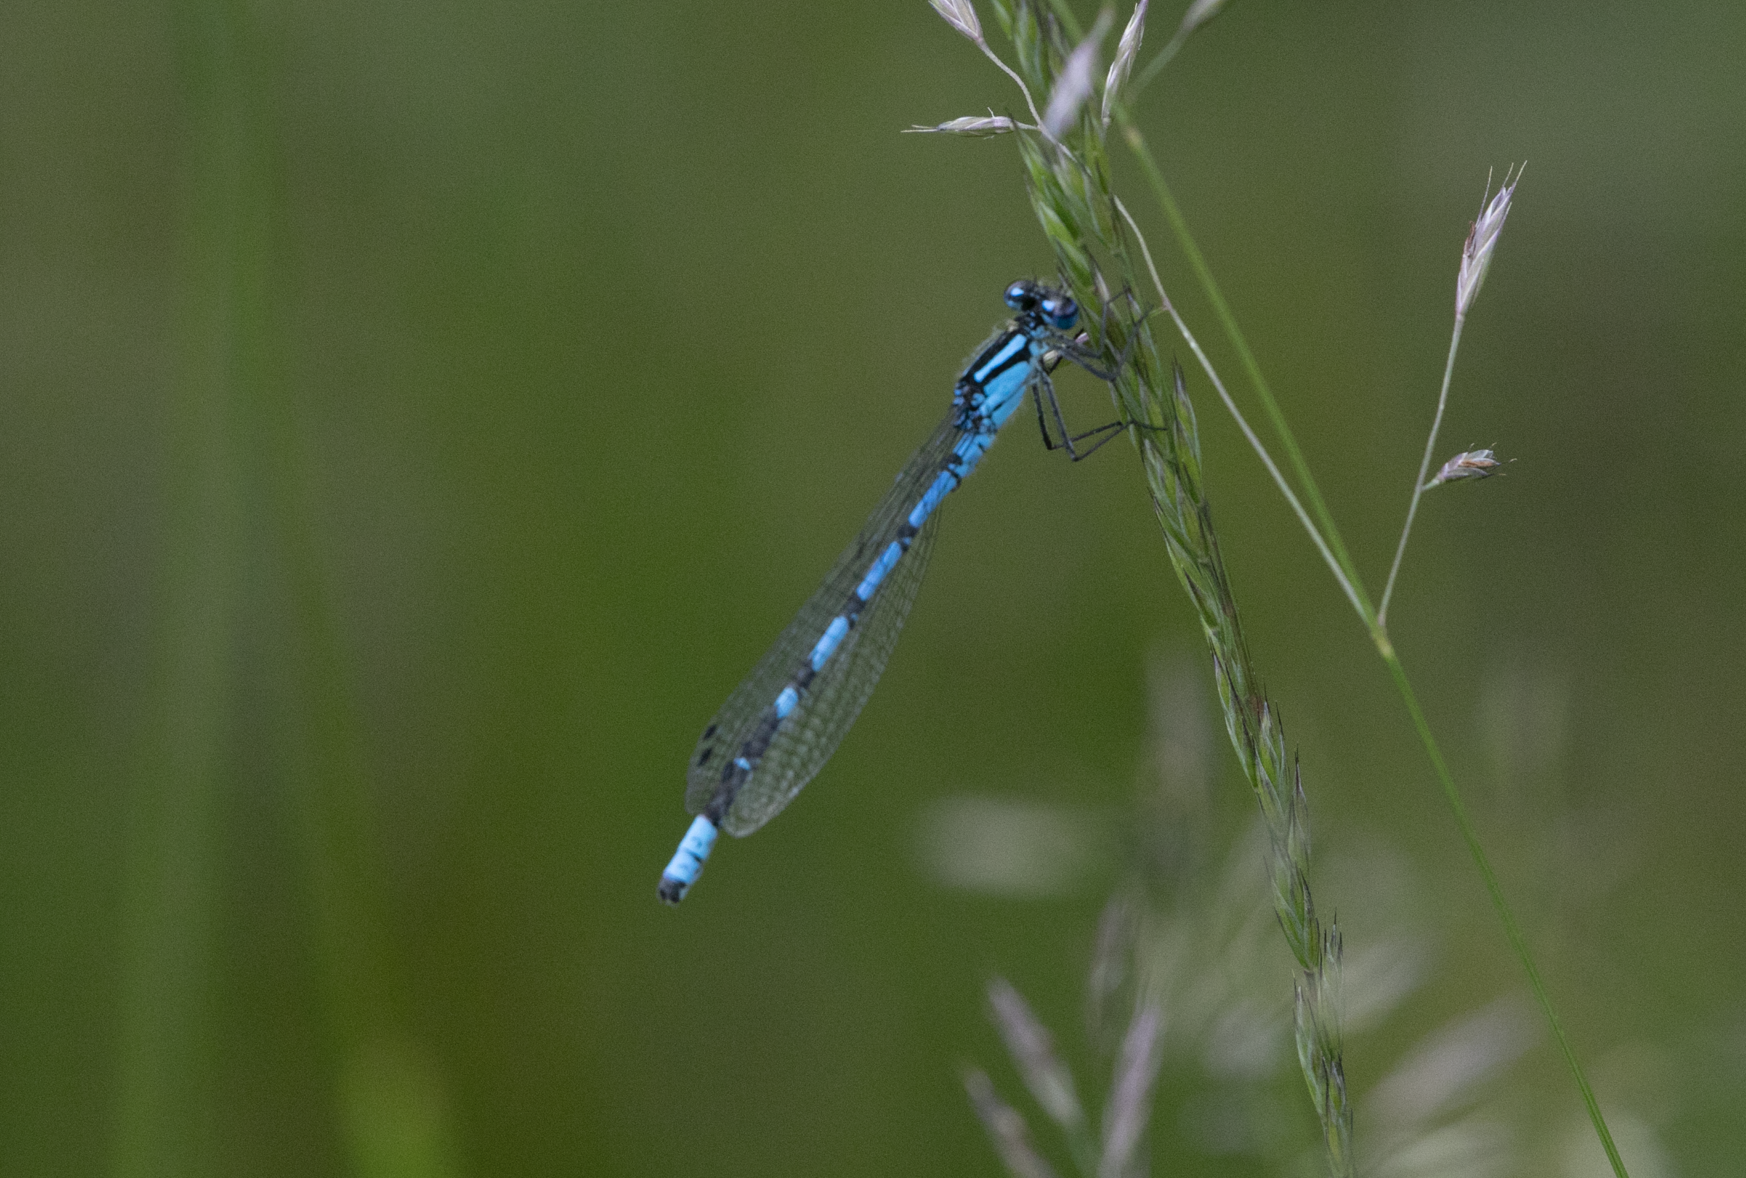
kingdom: Animalia
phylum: Arthropoda
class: Insecta
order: Odonata
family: Coenagrionidae
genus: Enallagma
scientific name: Enallagma cyathigerum
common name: Common blue damselfly
